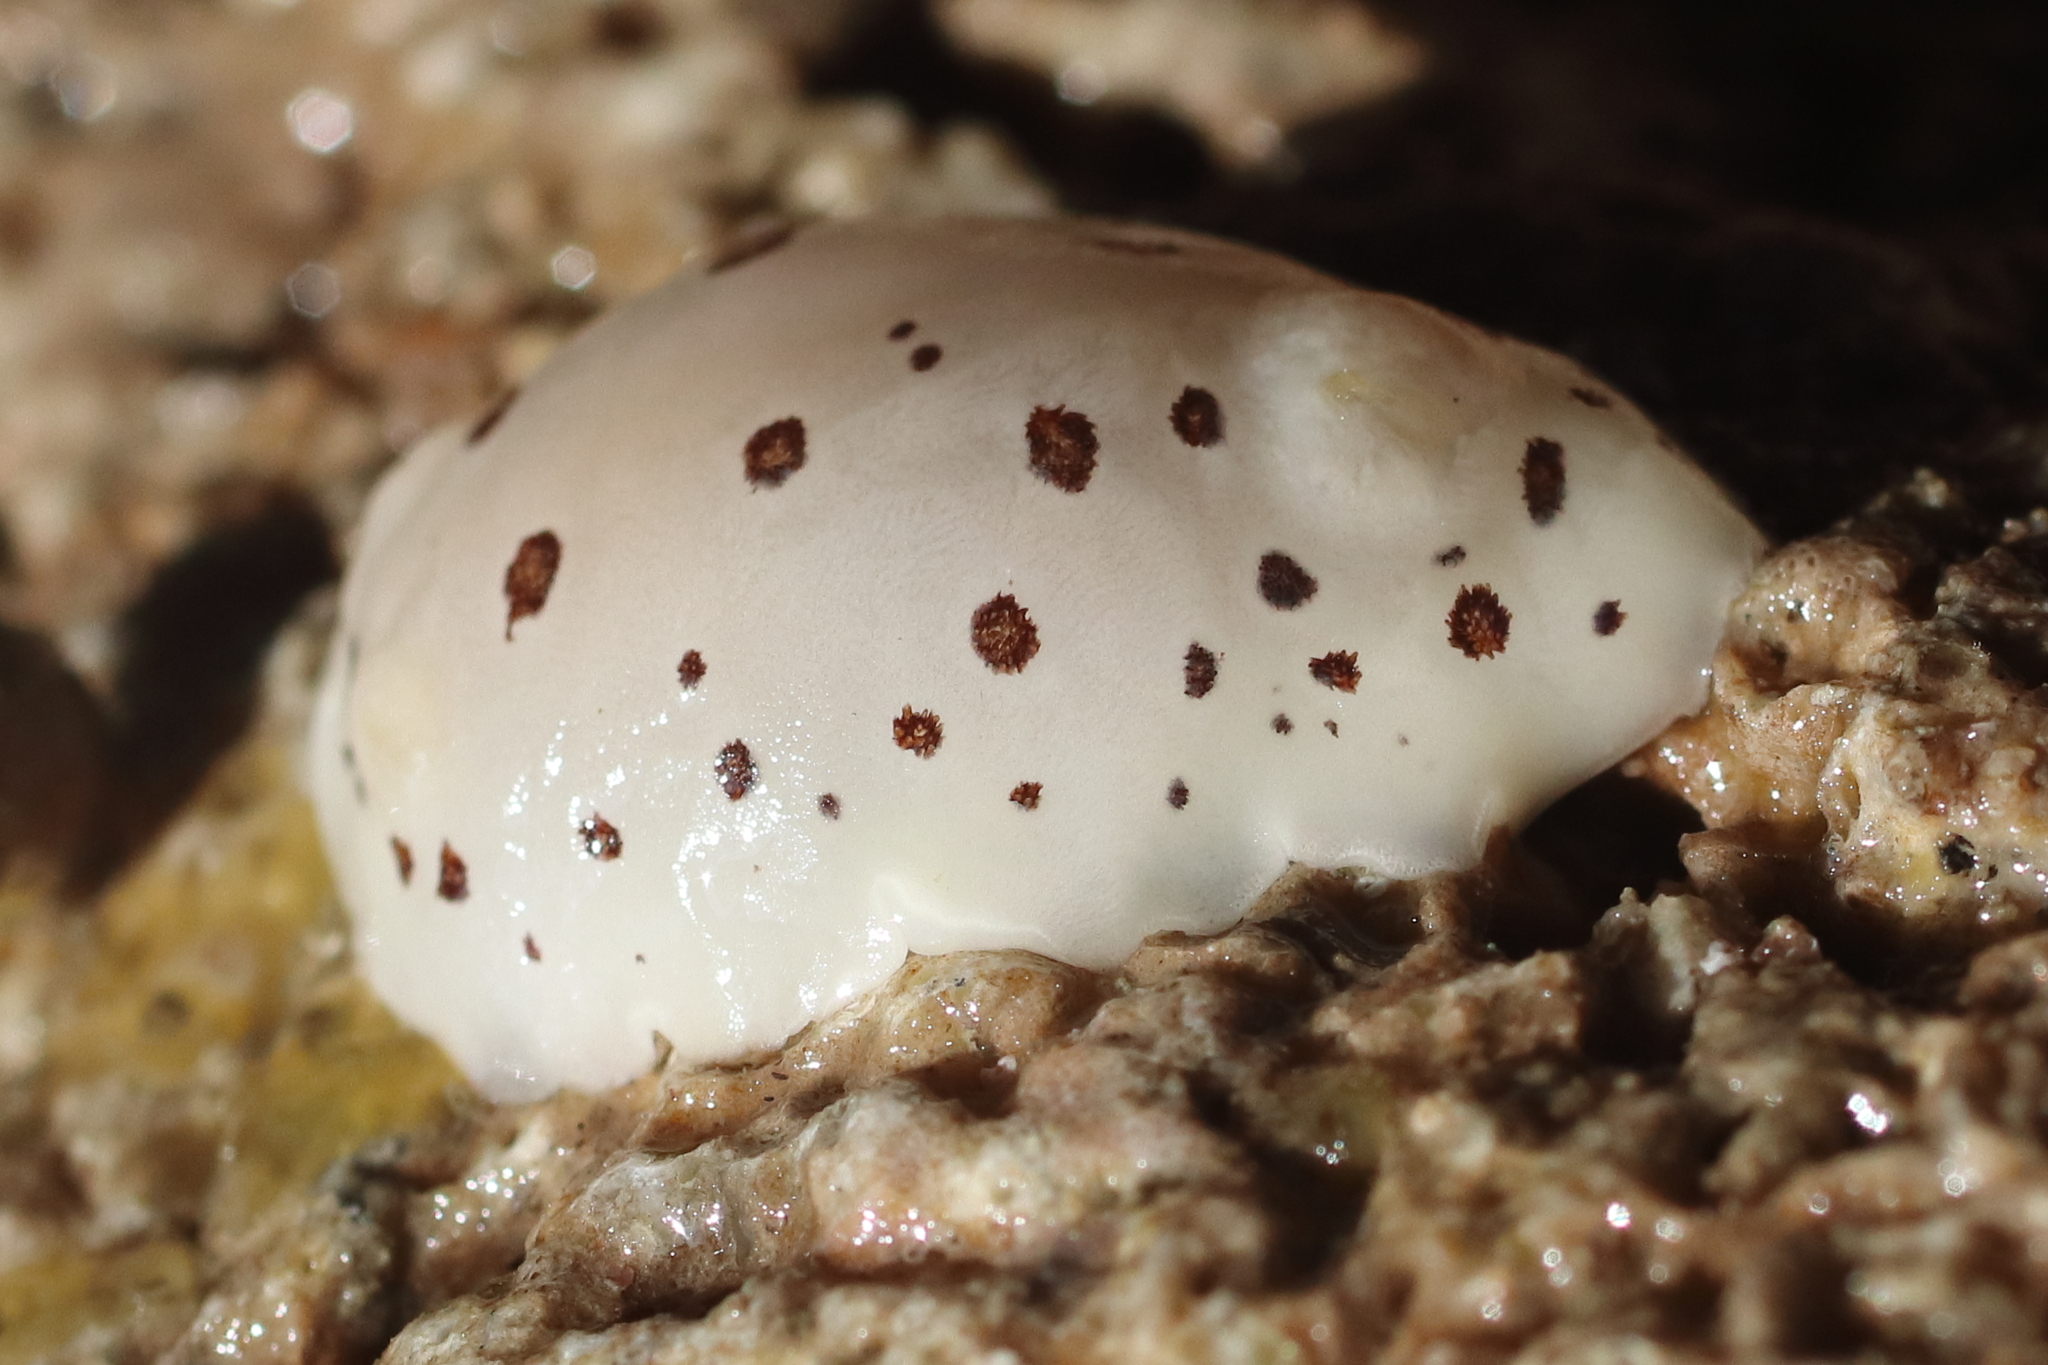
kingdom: Animalia
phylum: Mollusca
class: Gastropoda
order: Nudibranchia
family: Discodorididae
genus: Diaulula
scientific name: Diaulula odonoghuei
